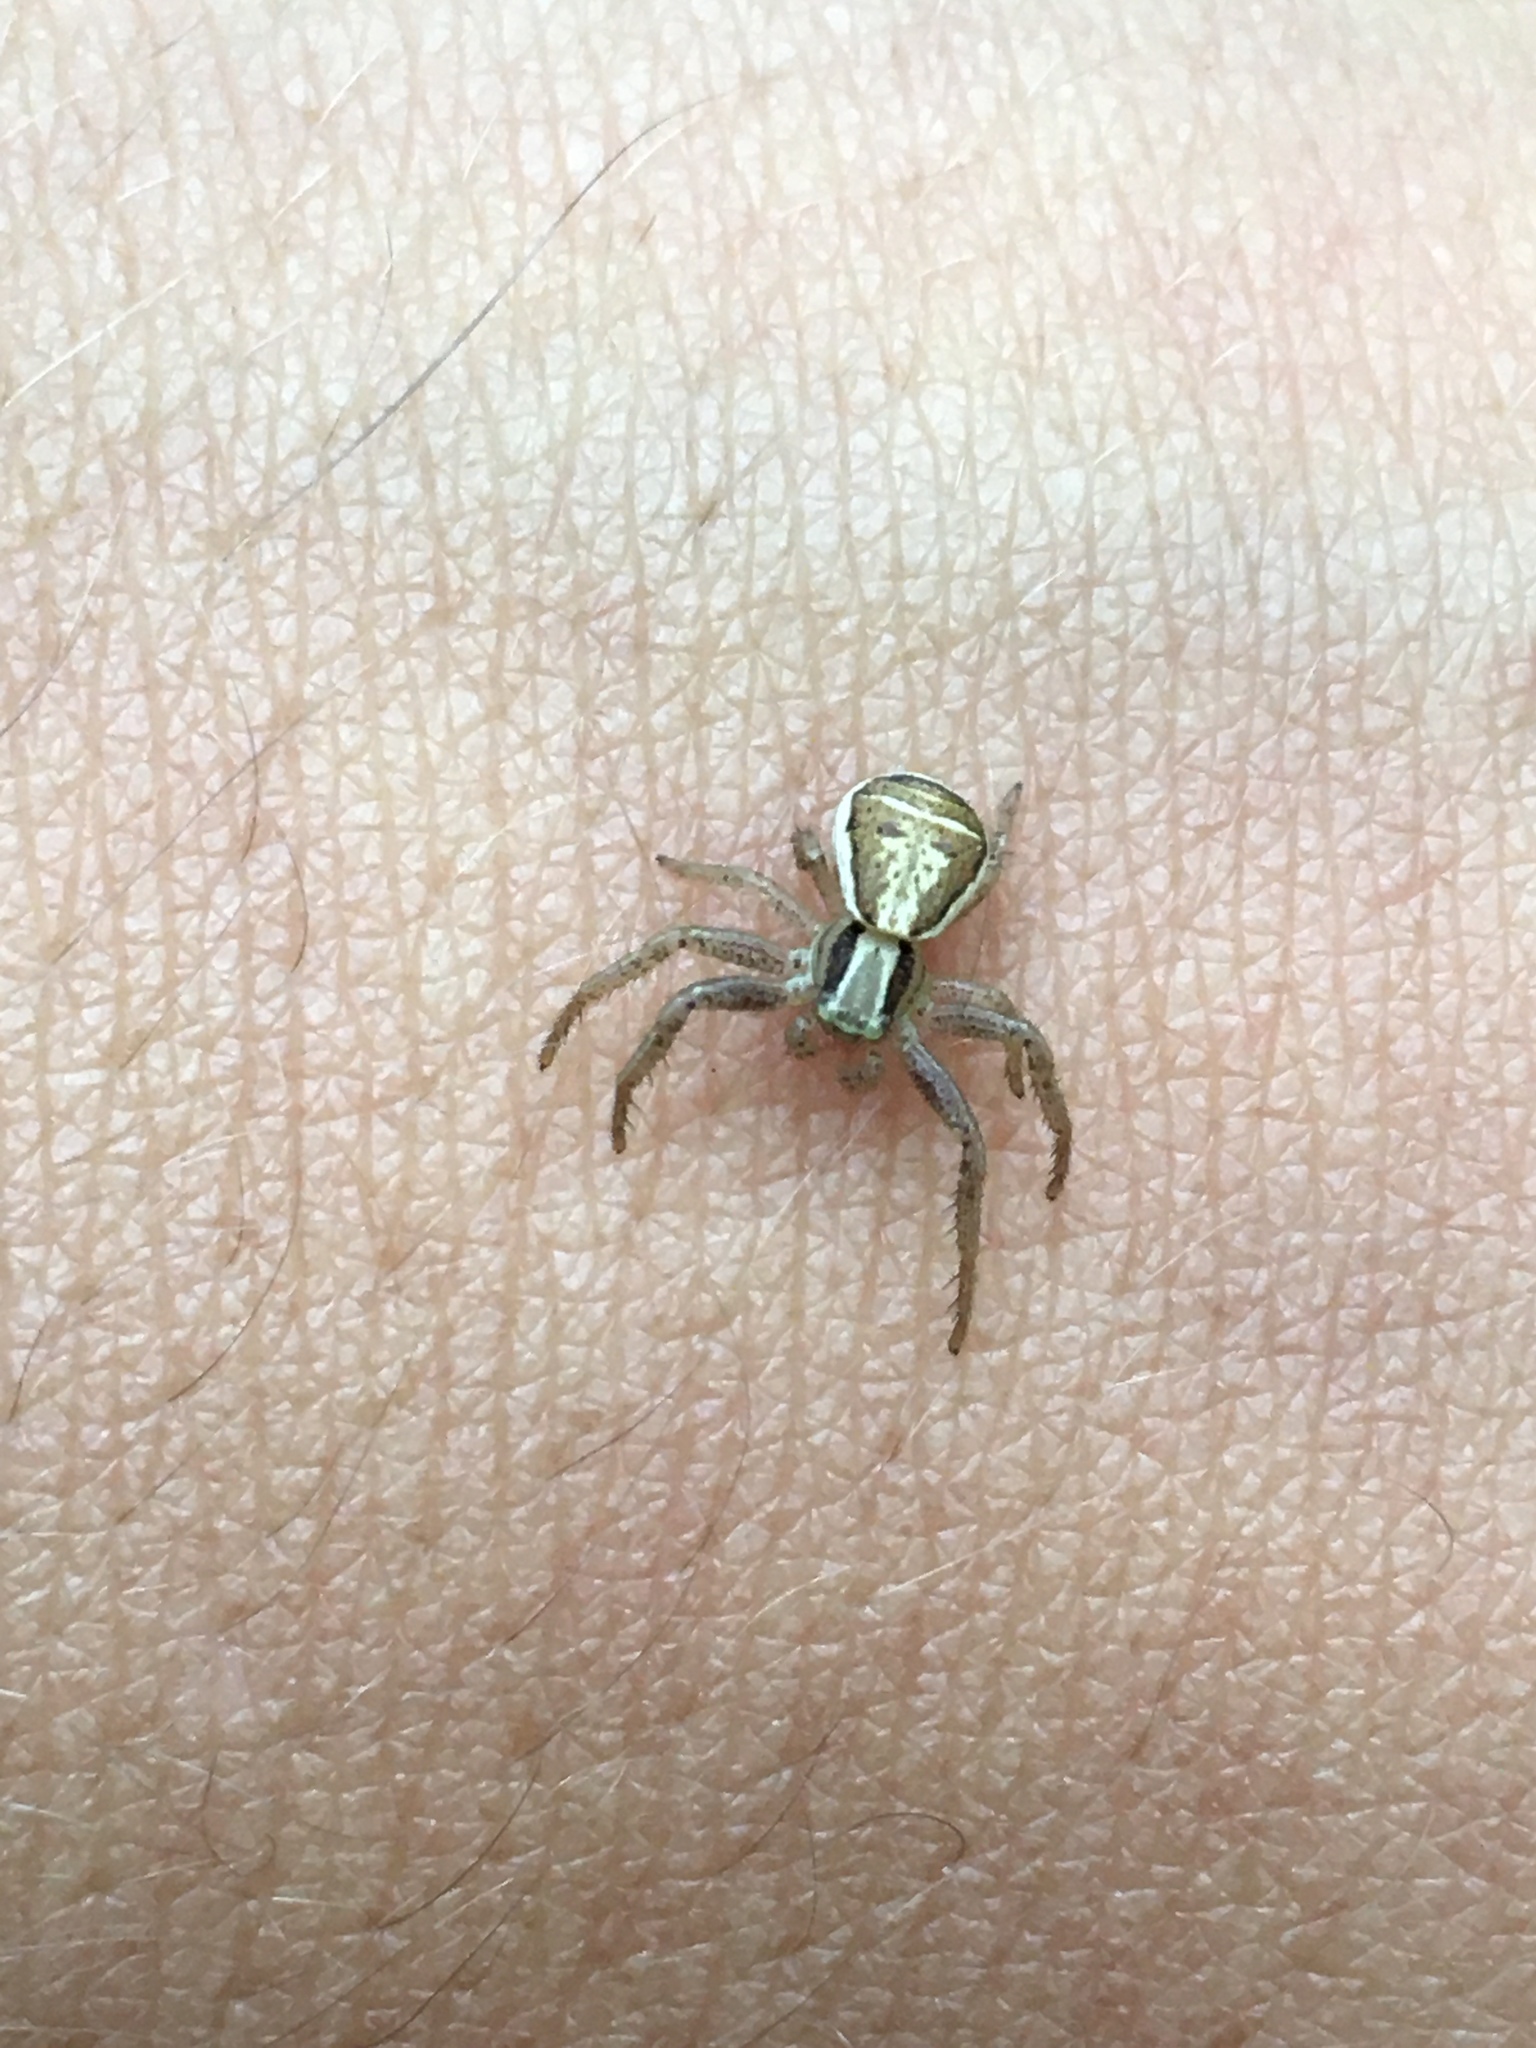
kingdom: Animalia
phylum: Arthropoda
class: Arachnida
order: Araneae
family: Thomisidae
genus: Xysticus
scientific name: Xysticus ulmi
